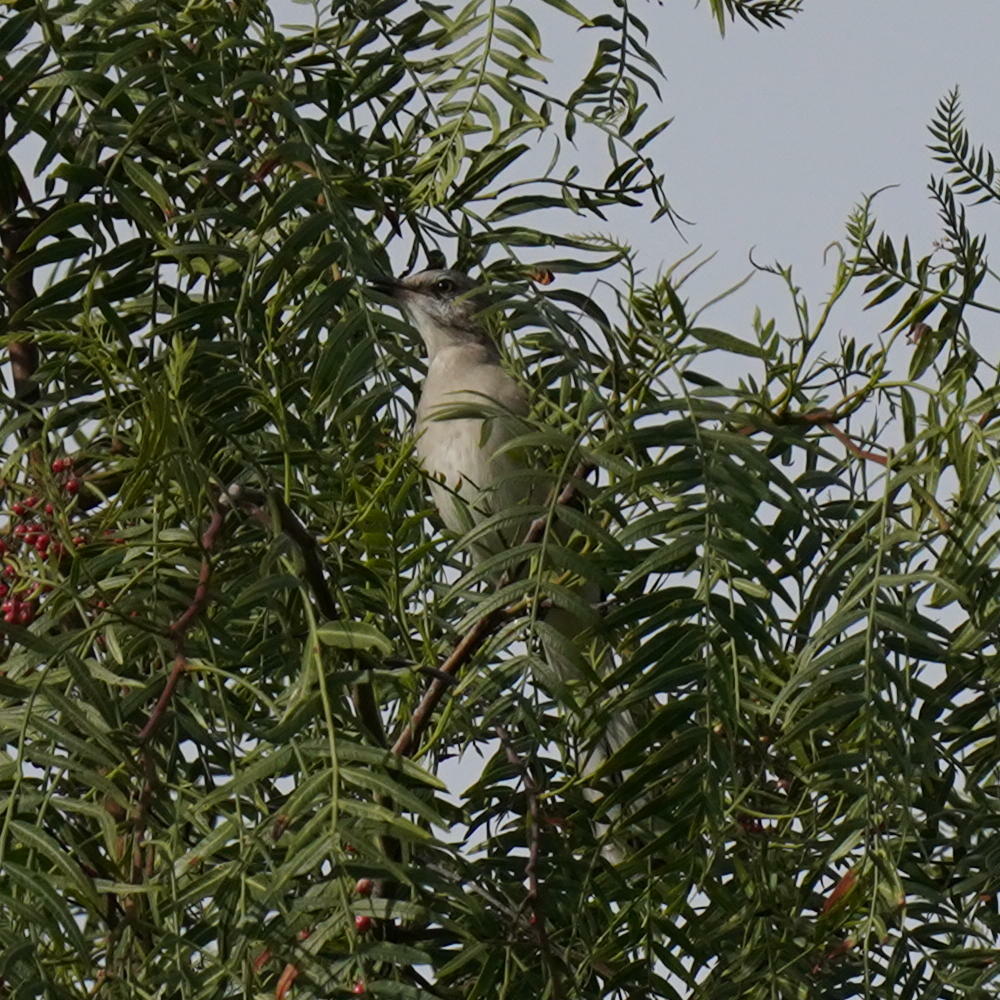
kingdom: Animalia
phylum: Chordata
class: Aves
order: Passeriformes
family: Mimidae
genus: Mimus
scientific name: Mimus polyglottos
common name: Northern mockingbird
